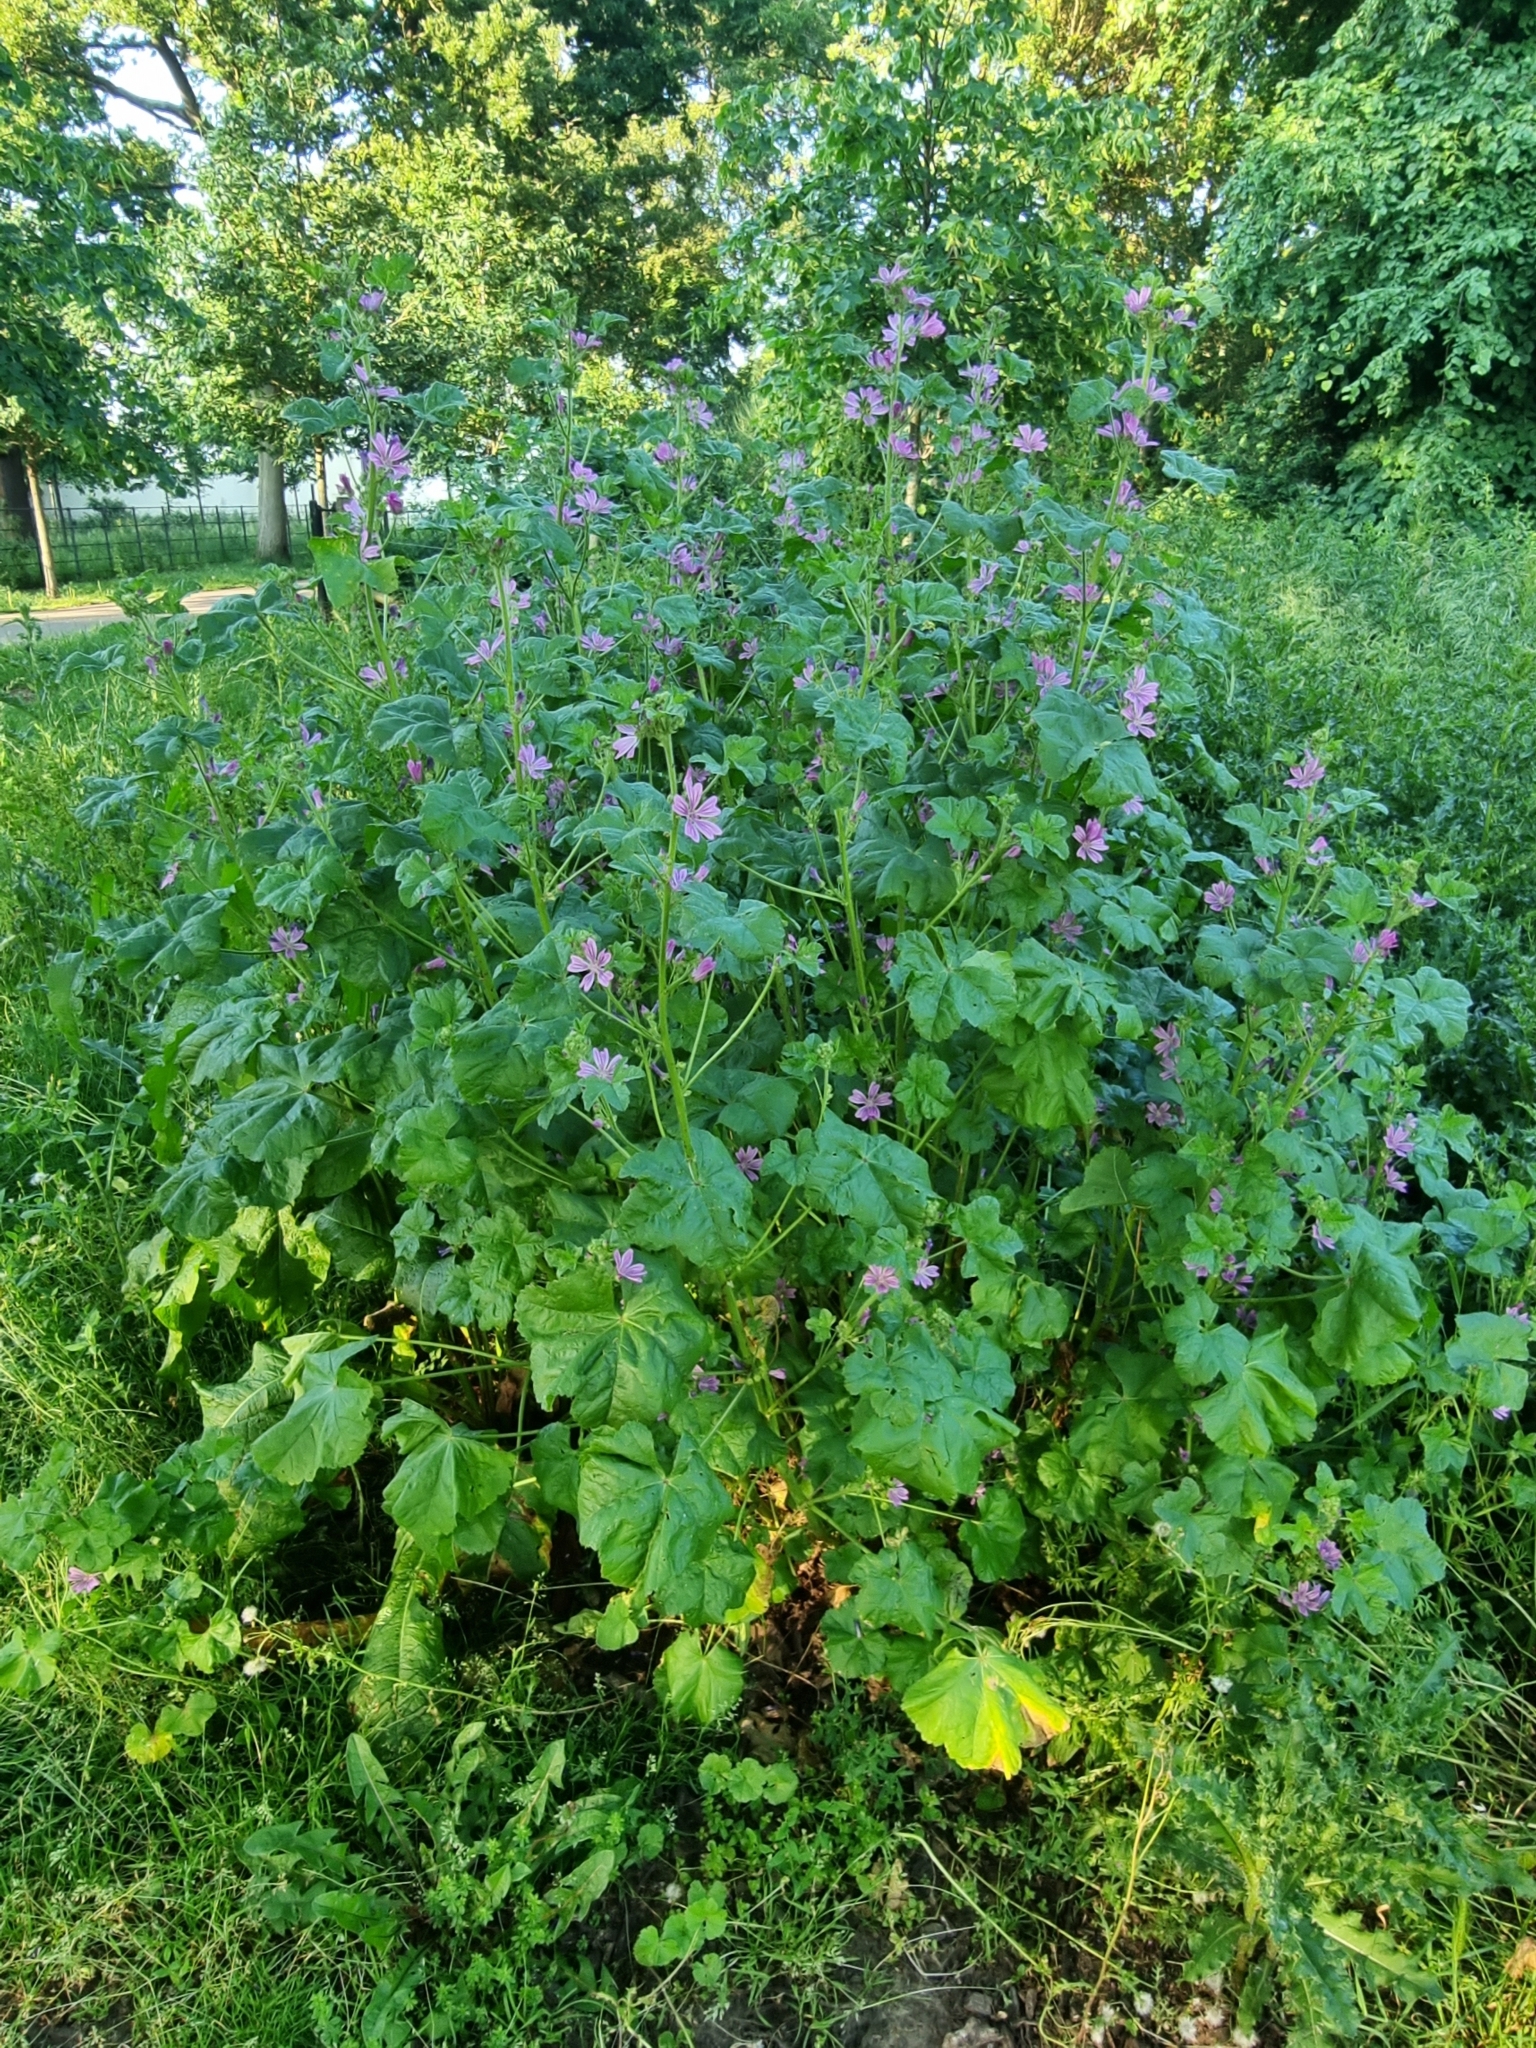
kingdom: Plantae
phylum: Tracheophyta
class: Magnoliopsida
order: Malvales
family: Malvaceae
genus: Malva
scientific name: Malva sylvestris
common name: Common mallow
